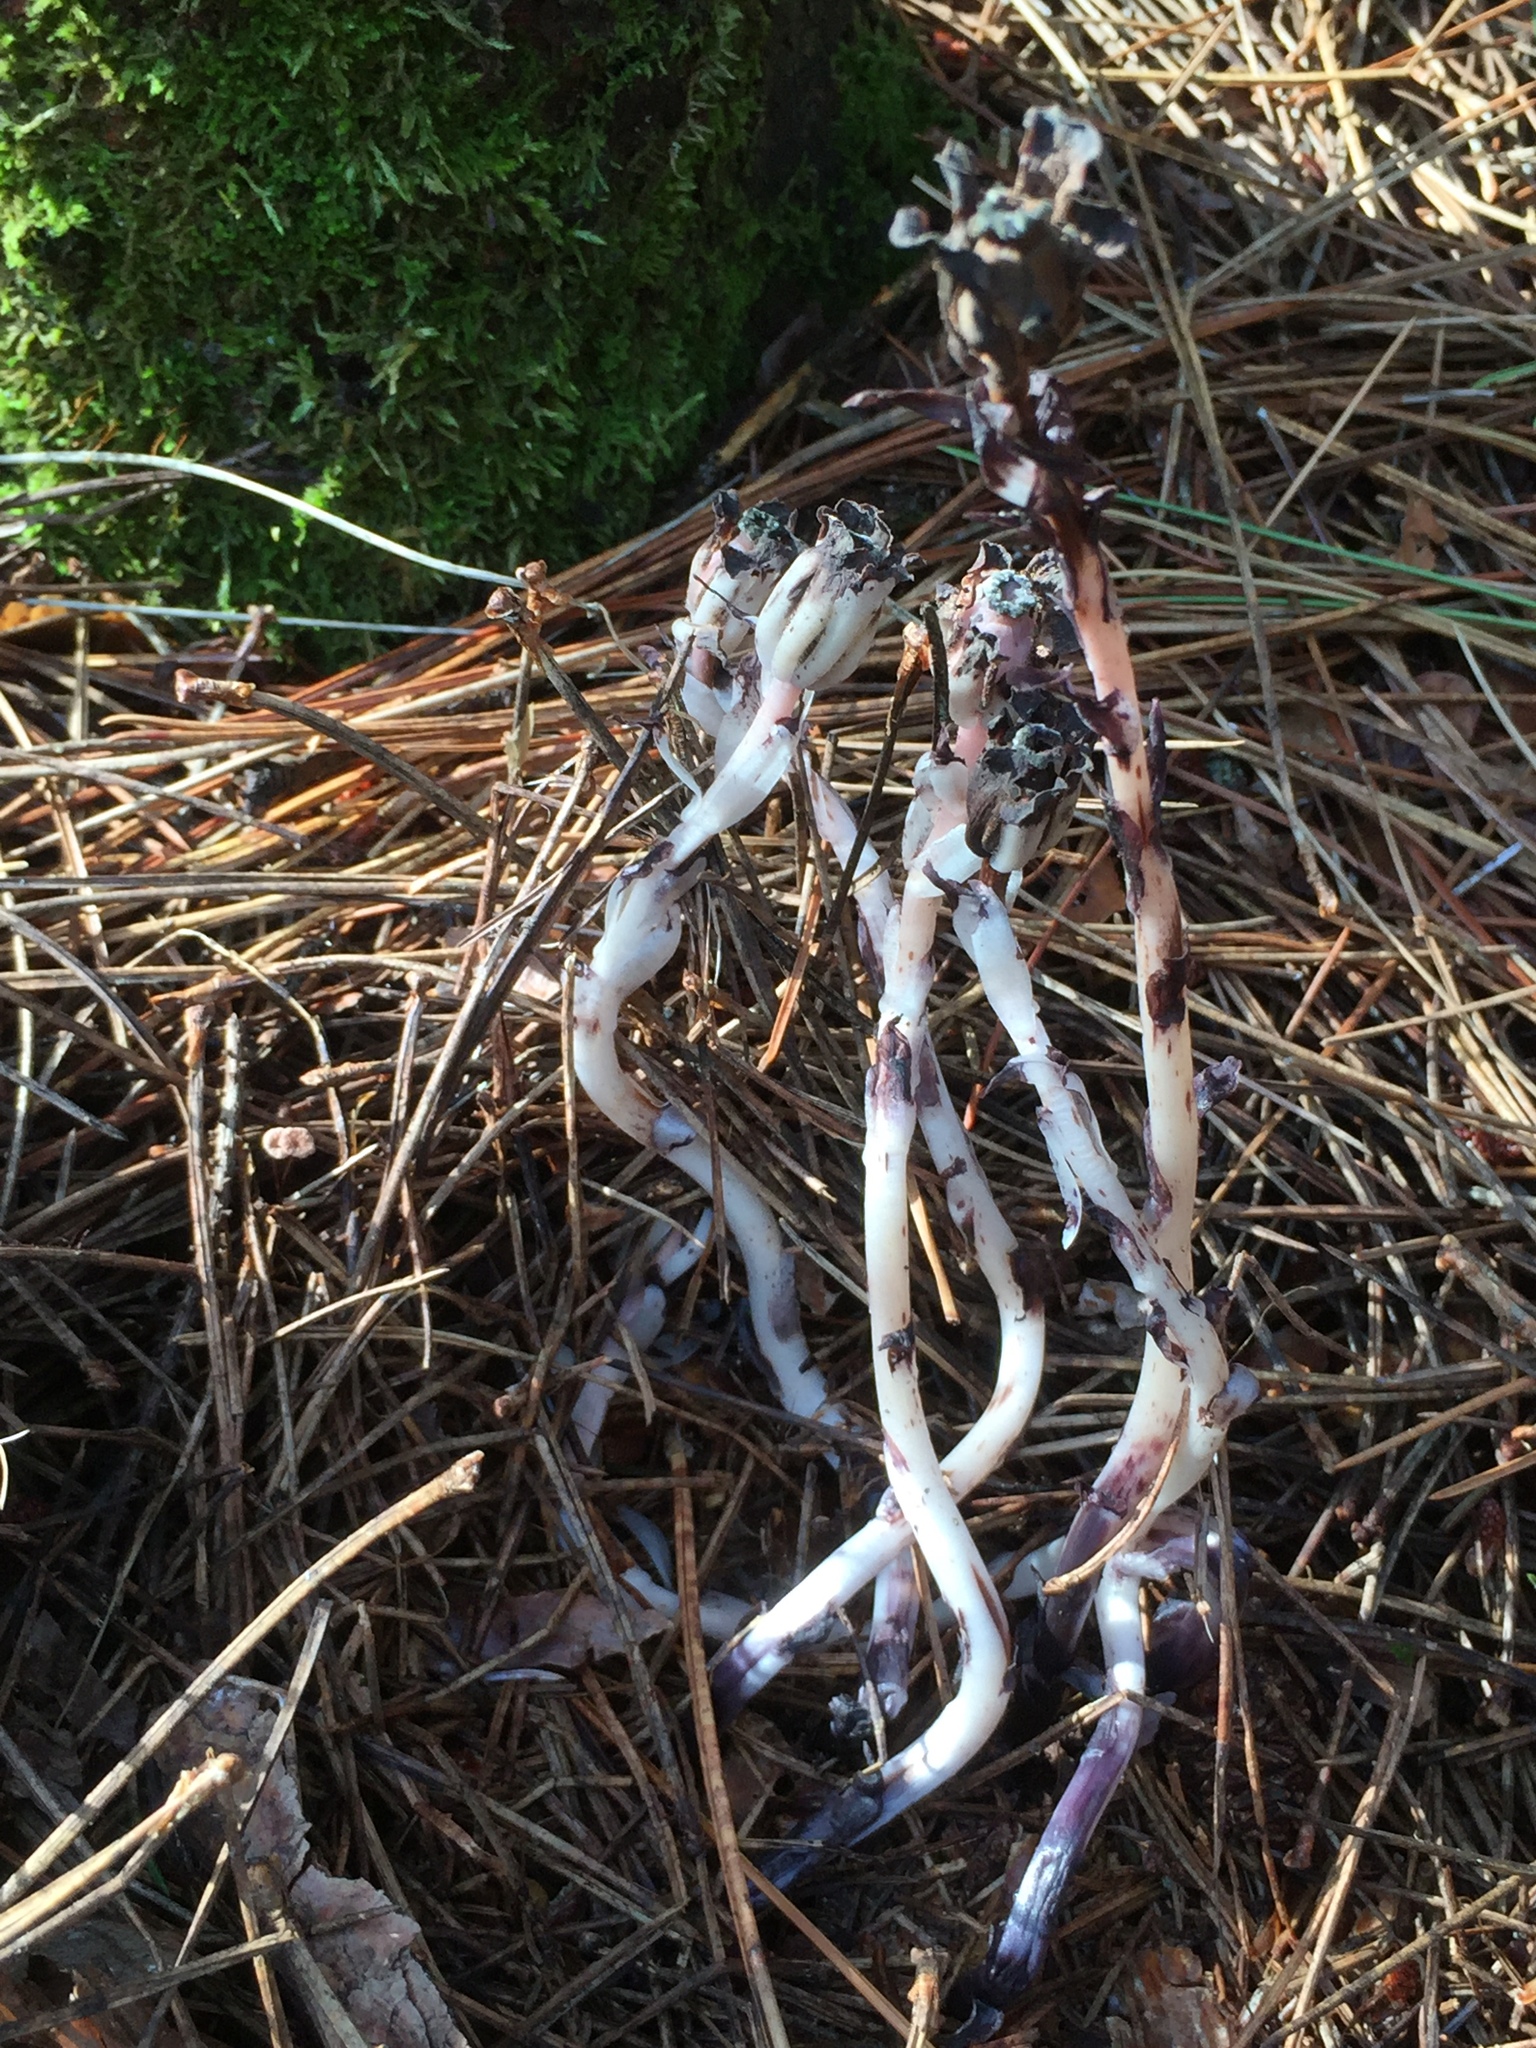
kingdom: Plantae
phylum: Tracheophyta
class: Magnoliopsida
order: Ericales
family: Ericaceae
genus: Monotropa
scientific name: Monotropa uniflora
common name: Convulsion root
